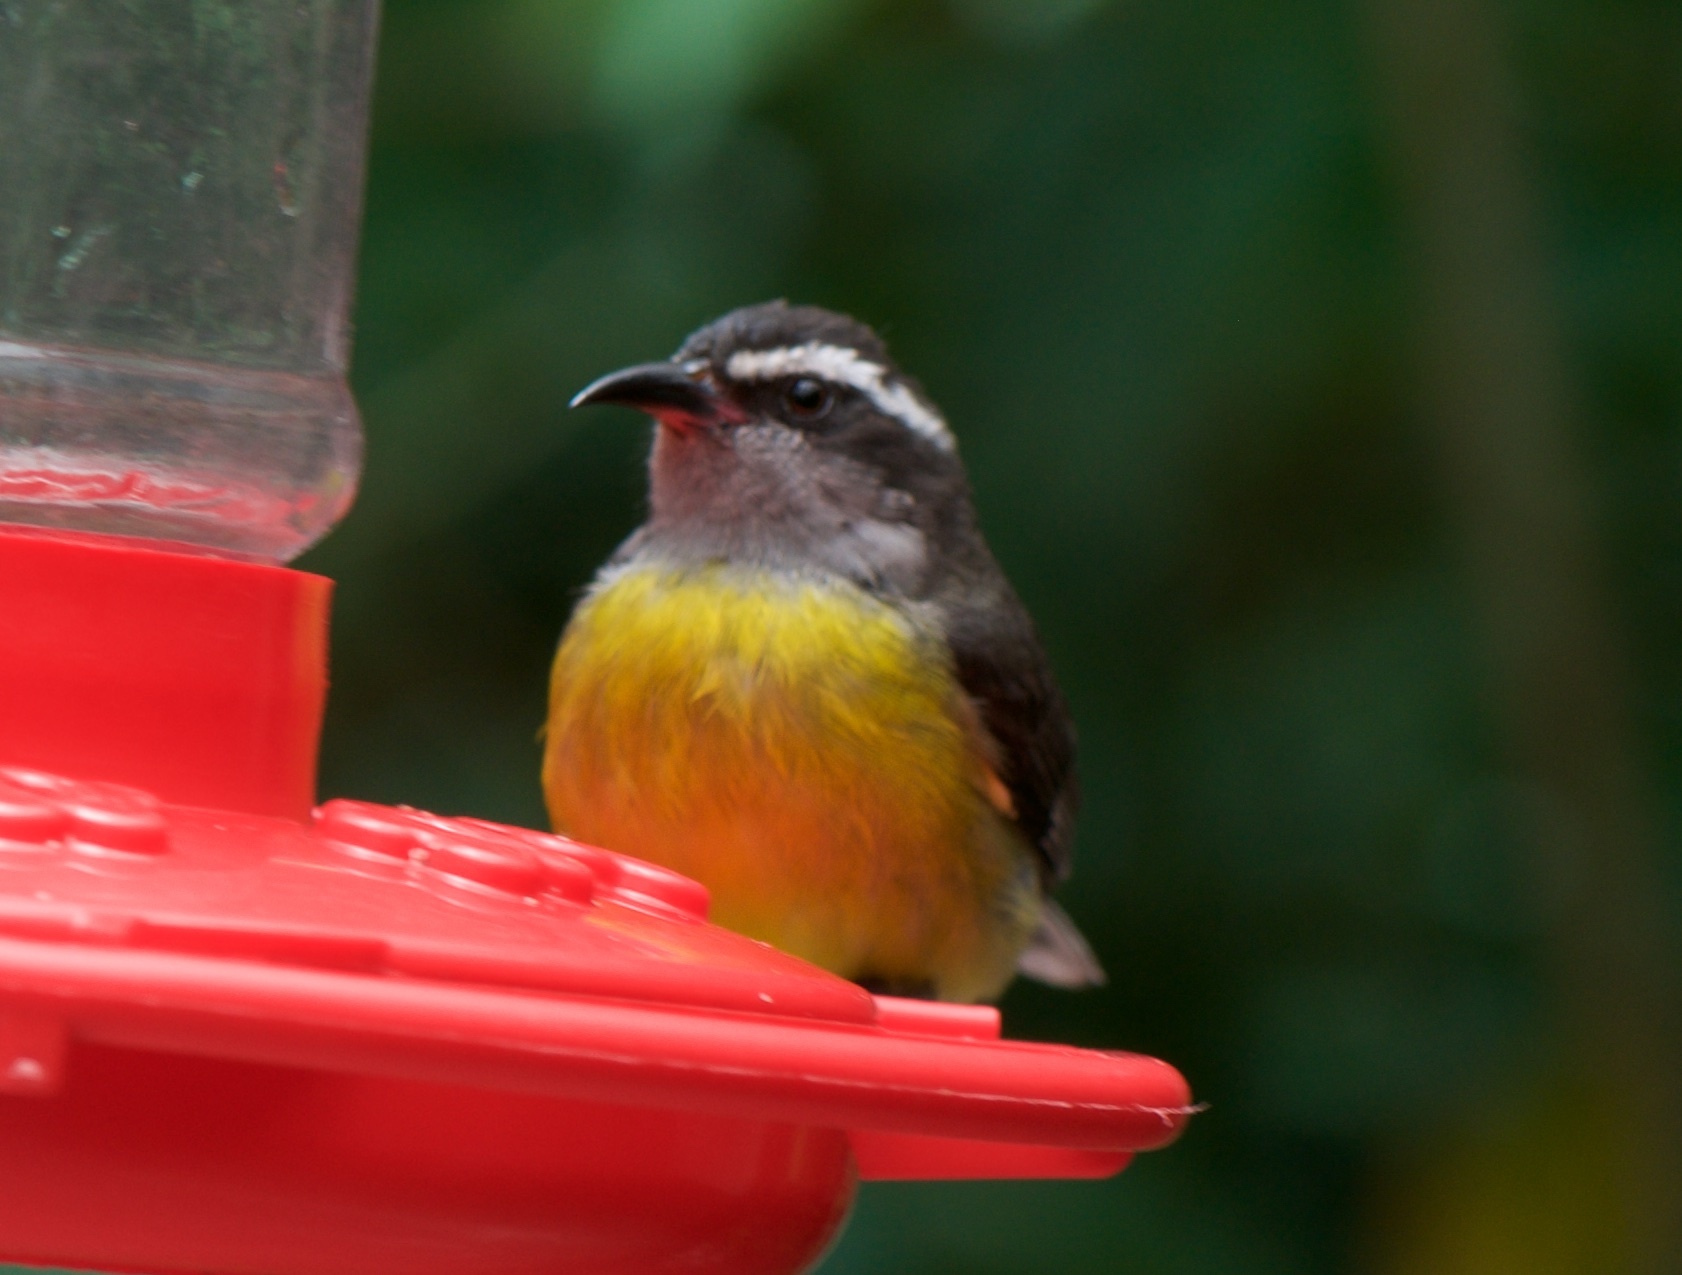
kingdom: Animalia
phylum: Chordata
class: Aves
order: Passeriformes
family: Thraupidae
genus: Coereba
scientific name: Coereba flaveola
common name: Bananaquit
